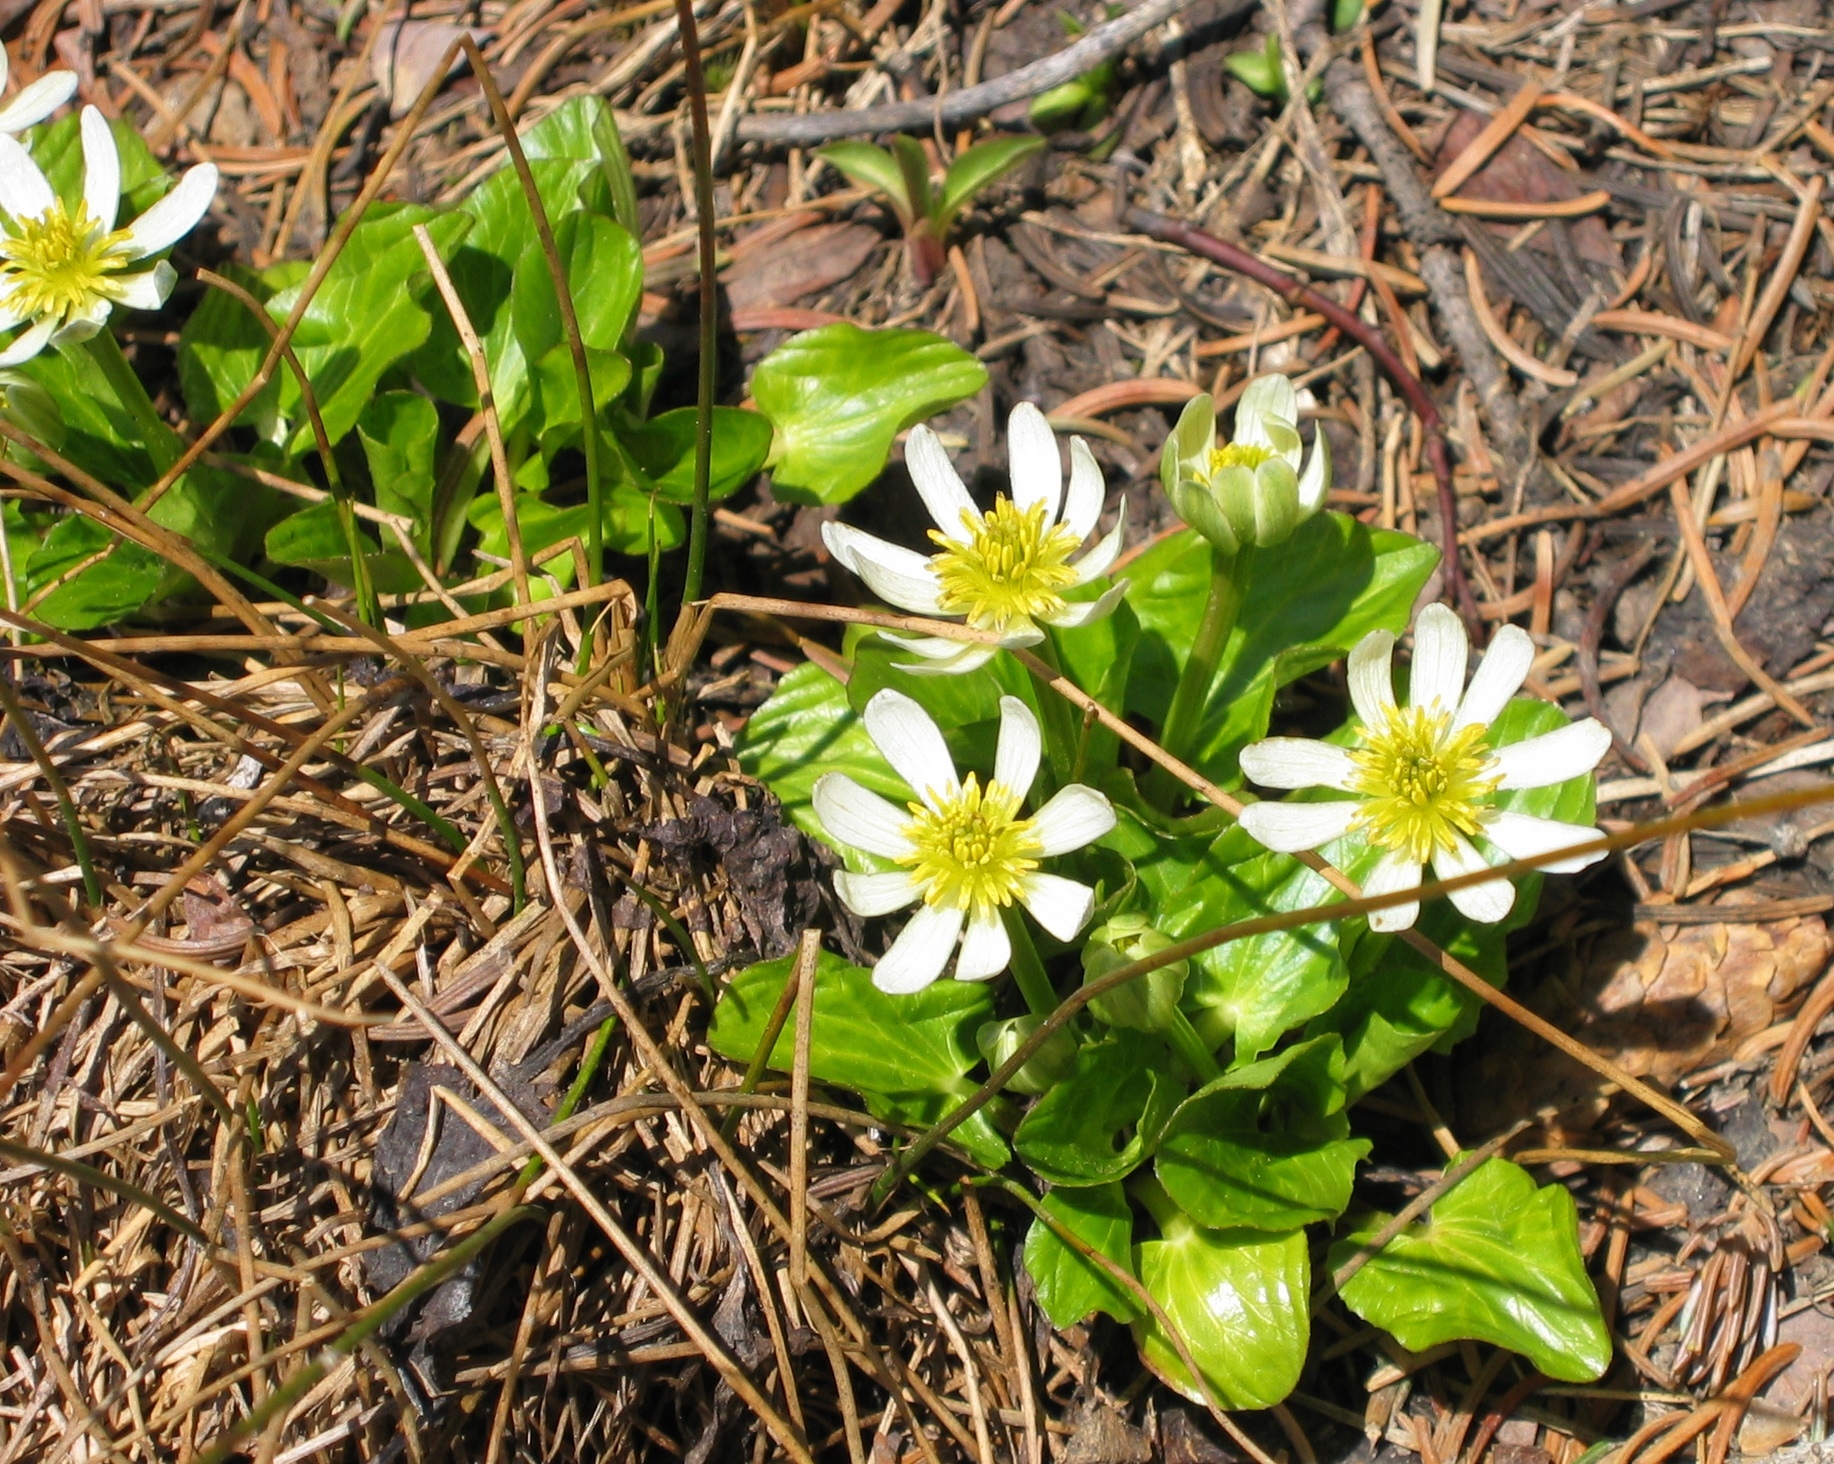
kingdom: Plantae
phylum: Tracheophyta
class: Magnoliopsida
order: Ranunculales
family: Ranunculaceae
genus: Caltha
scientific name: Caltha leptosepala
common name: Elkslip
